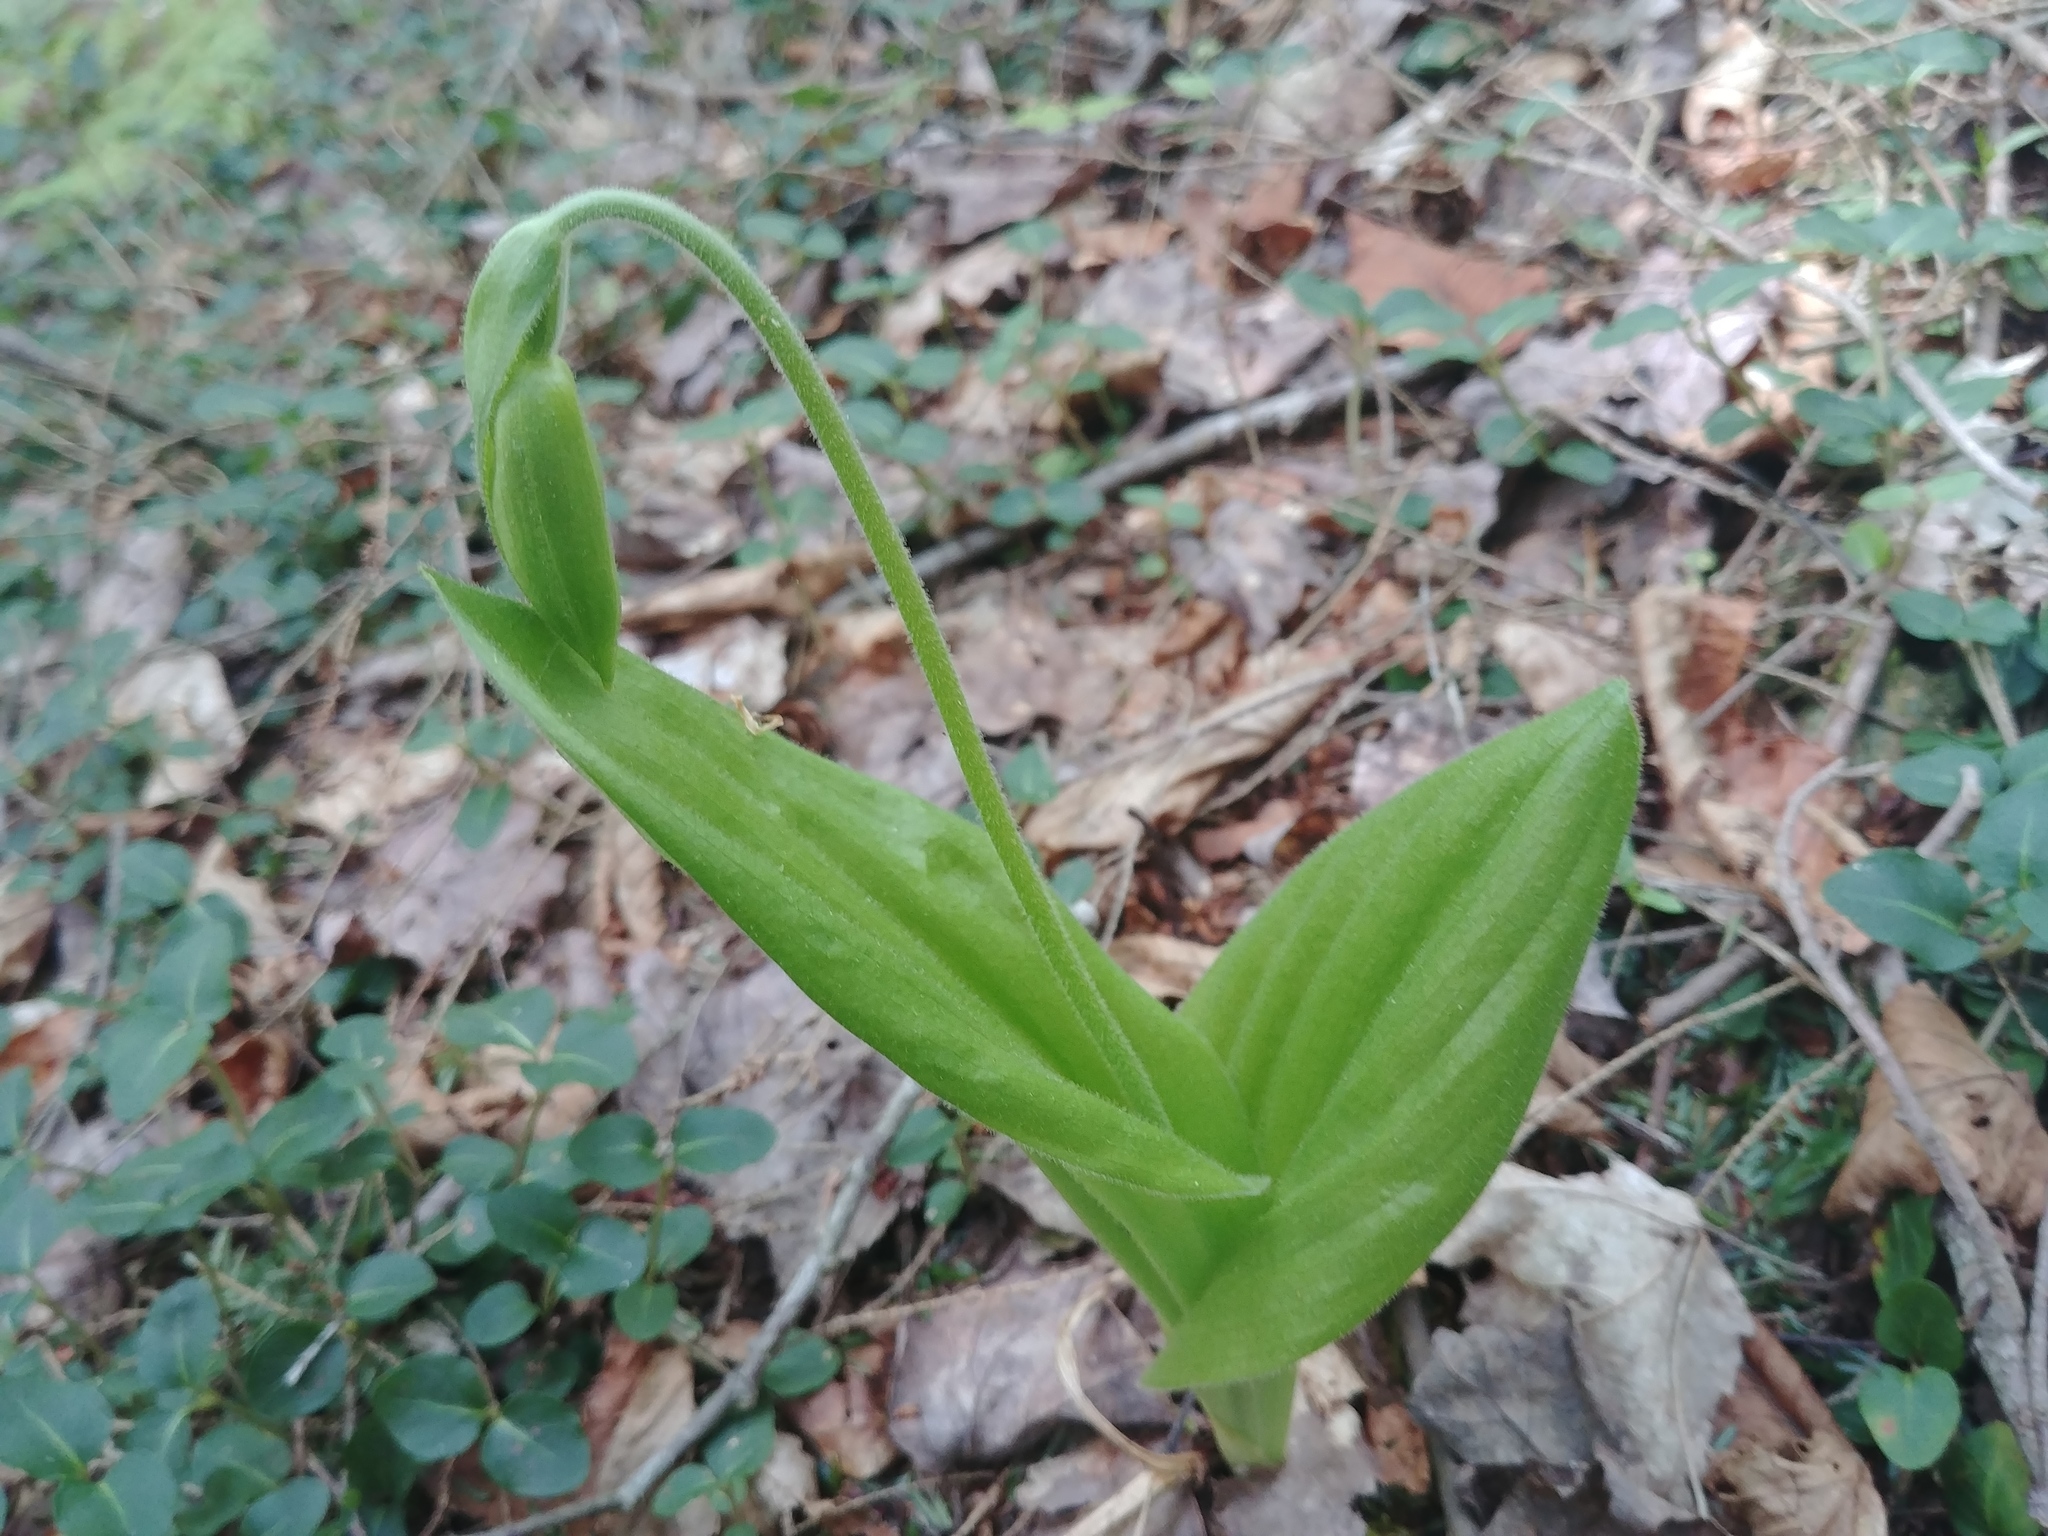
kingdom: Plantae
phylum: Tracheophyta
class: Liliopsida
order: Asparagales
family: Orchidaceae
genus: Cypripedium
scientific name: Cypripedium acaule
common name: Pink lady's-slipper
